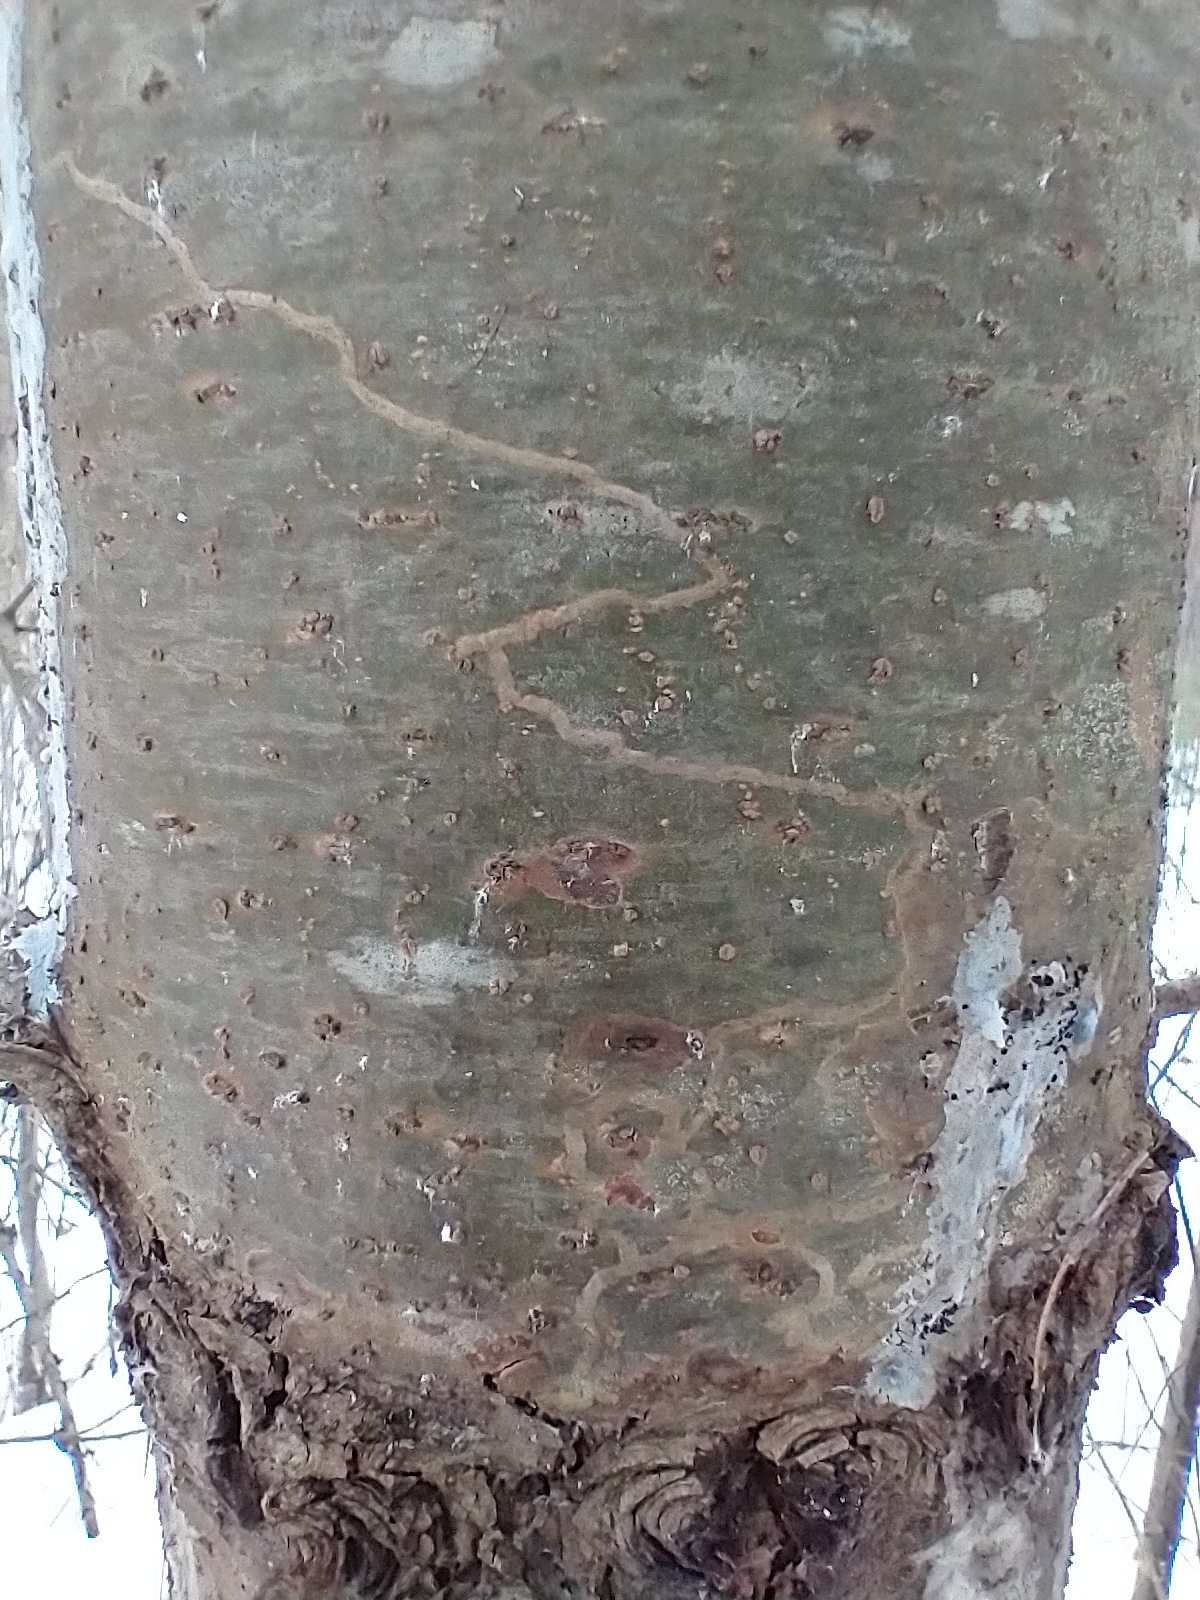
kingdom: Animalia
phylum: Arthropoda
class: Insecta
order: Lepidoptera
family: Gracillariidae
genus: Marmara
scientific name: Marmara fasciella
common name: White pine barkminer moth
